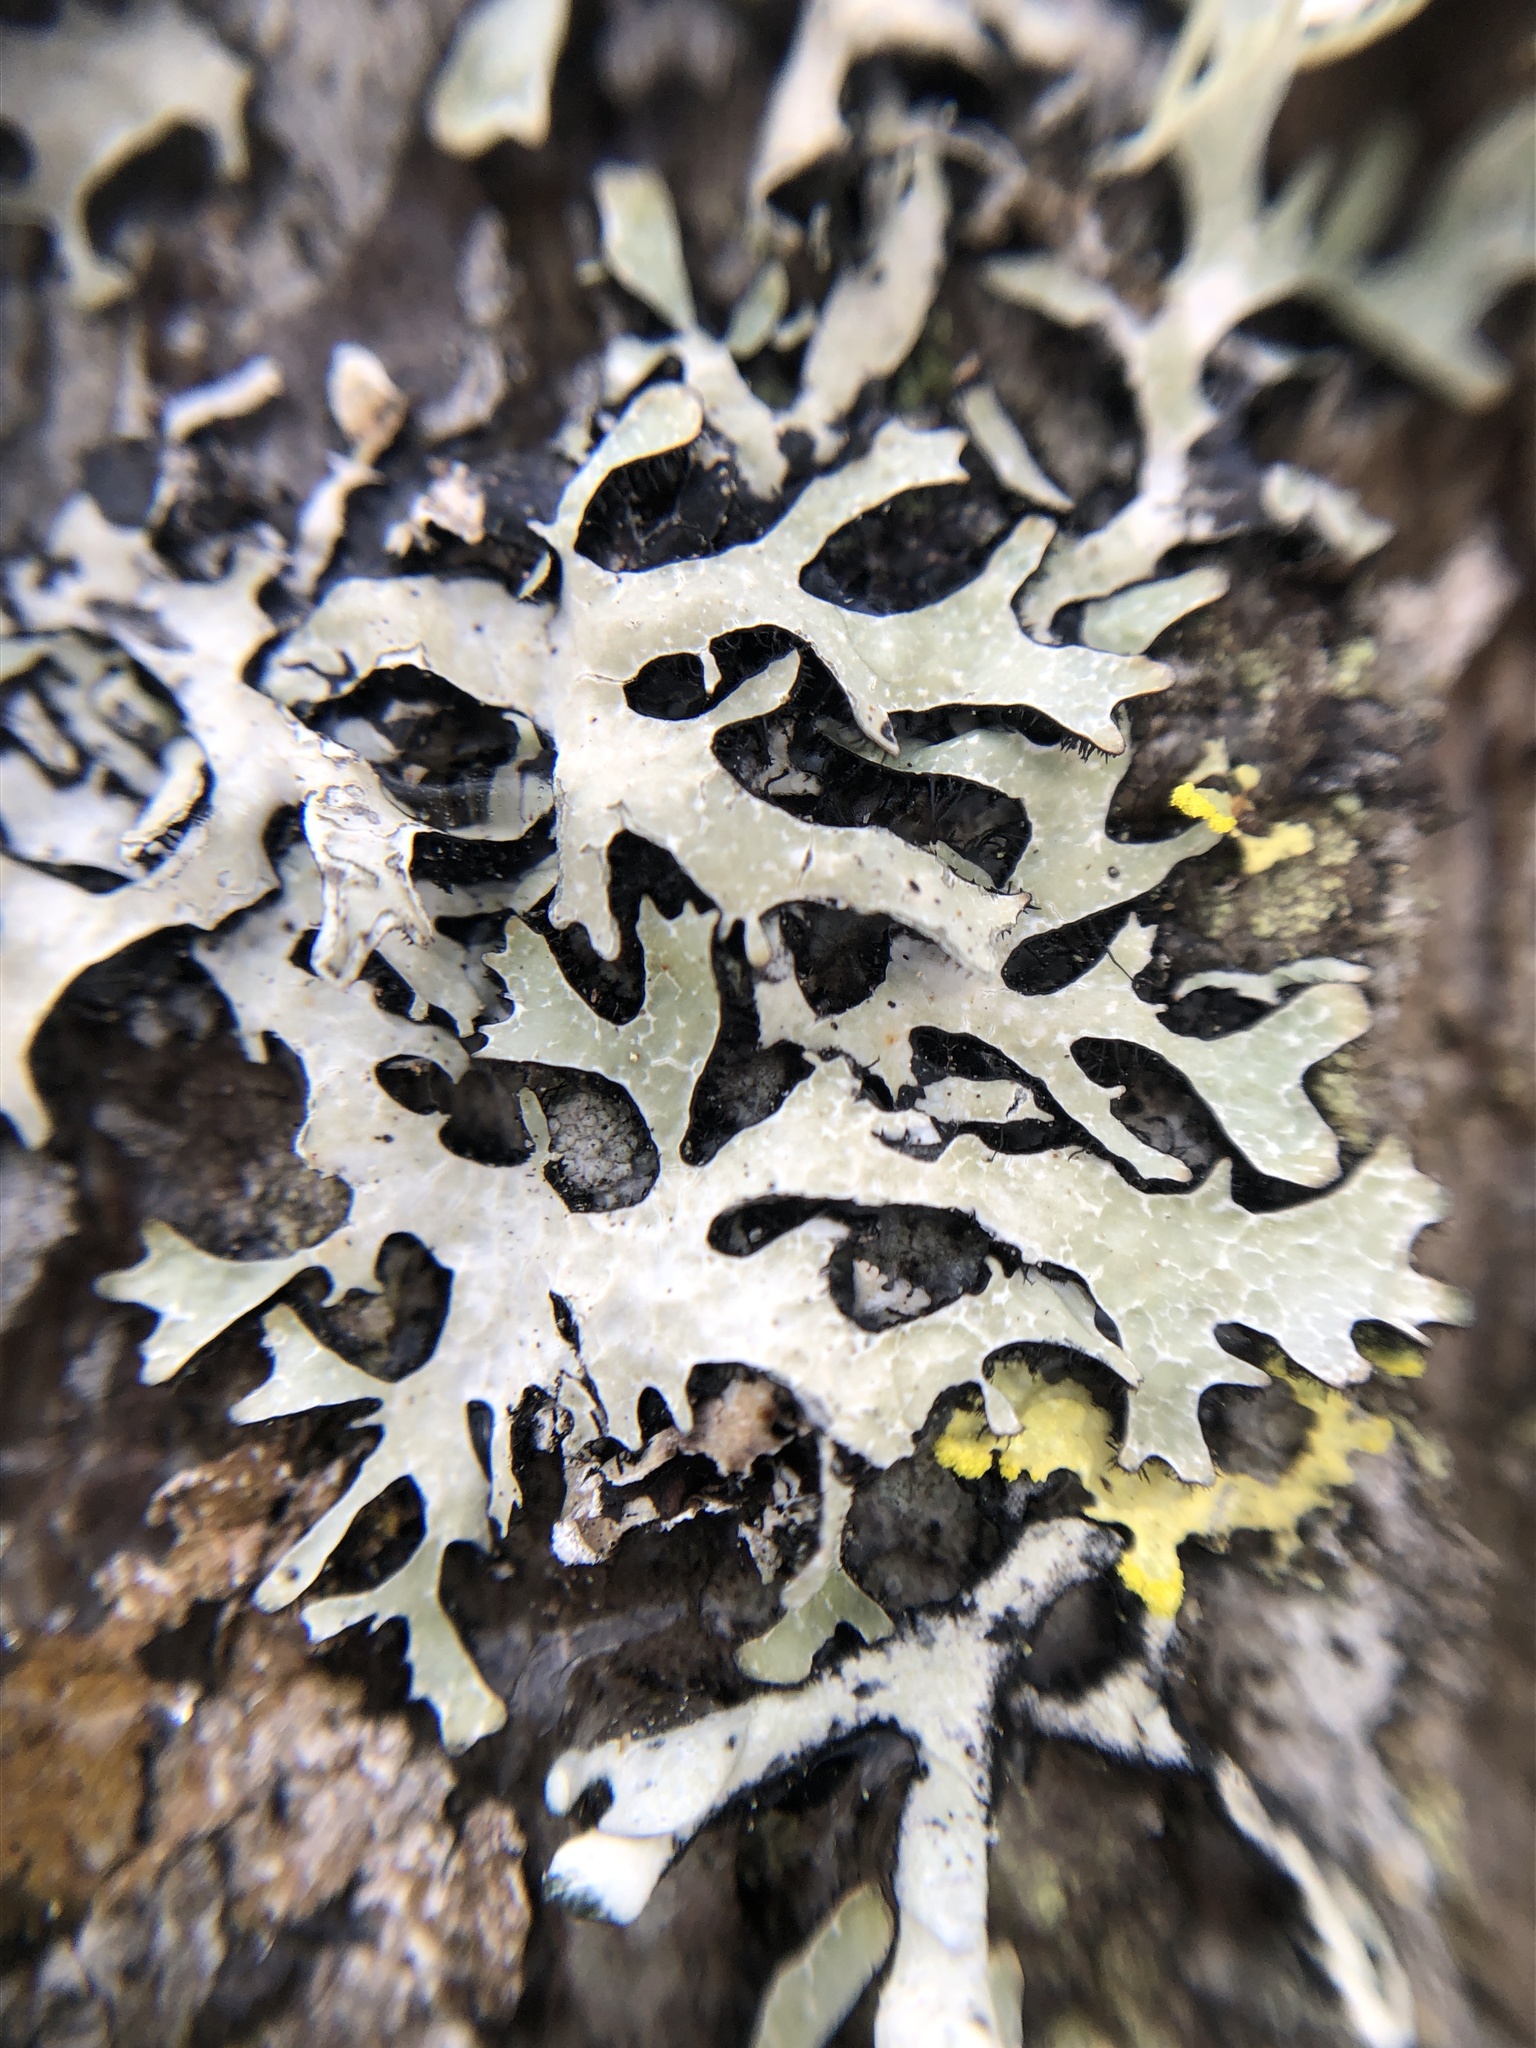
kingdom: Fungi
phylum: Ascomycota
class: Lecanoromycetes
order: Lecanorales
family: Parmeliaceae
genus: Parmelia
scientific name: Parmelia sulcata
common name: Netted shield lichen
